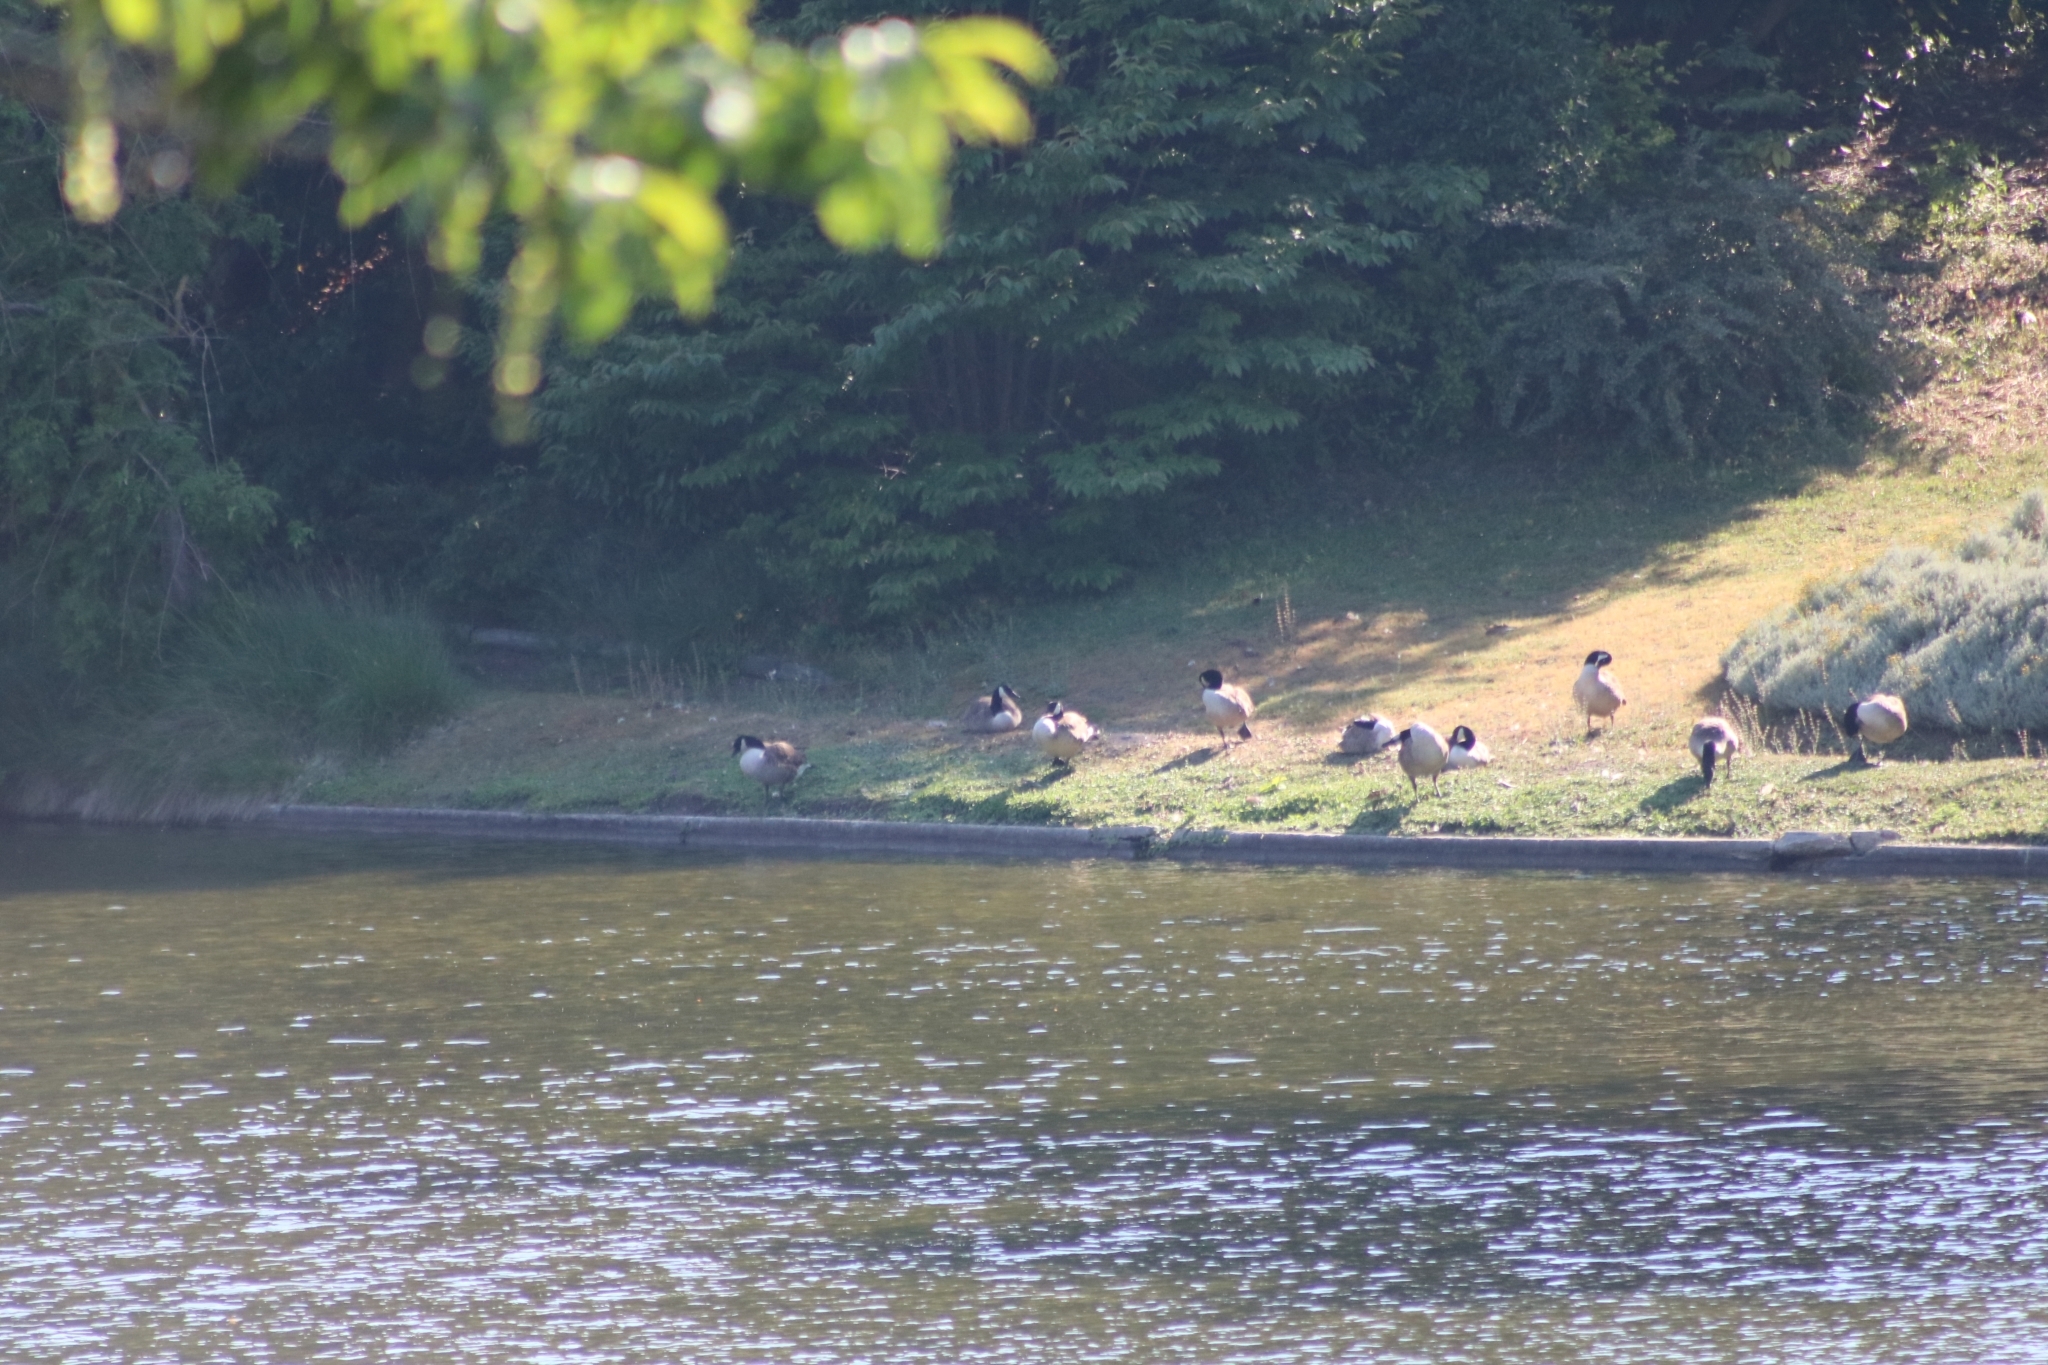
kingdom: Animalia
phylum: Chordata
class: Aves
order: Anseriformes
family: Anatidae
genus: Branta
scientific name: Branta canadensis
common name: Canada goose
